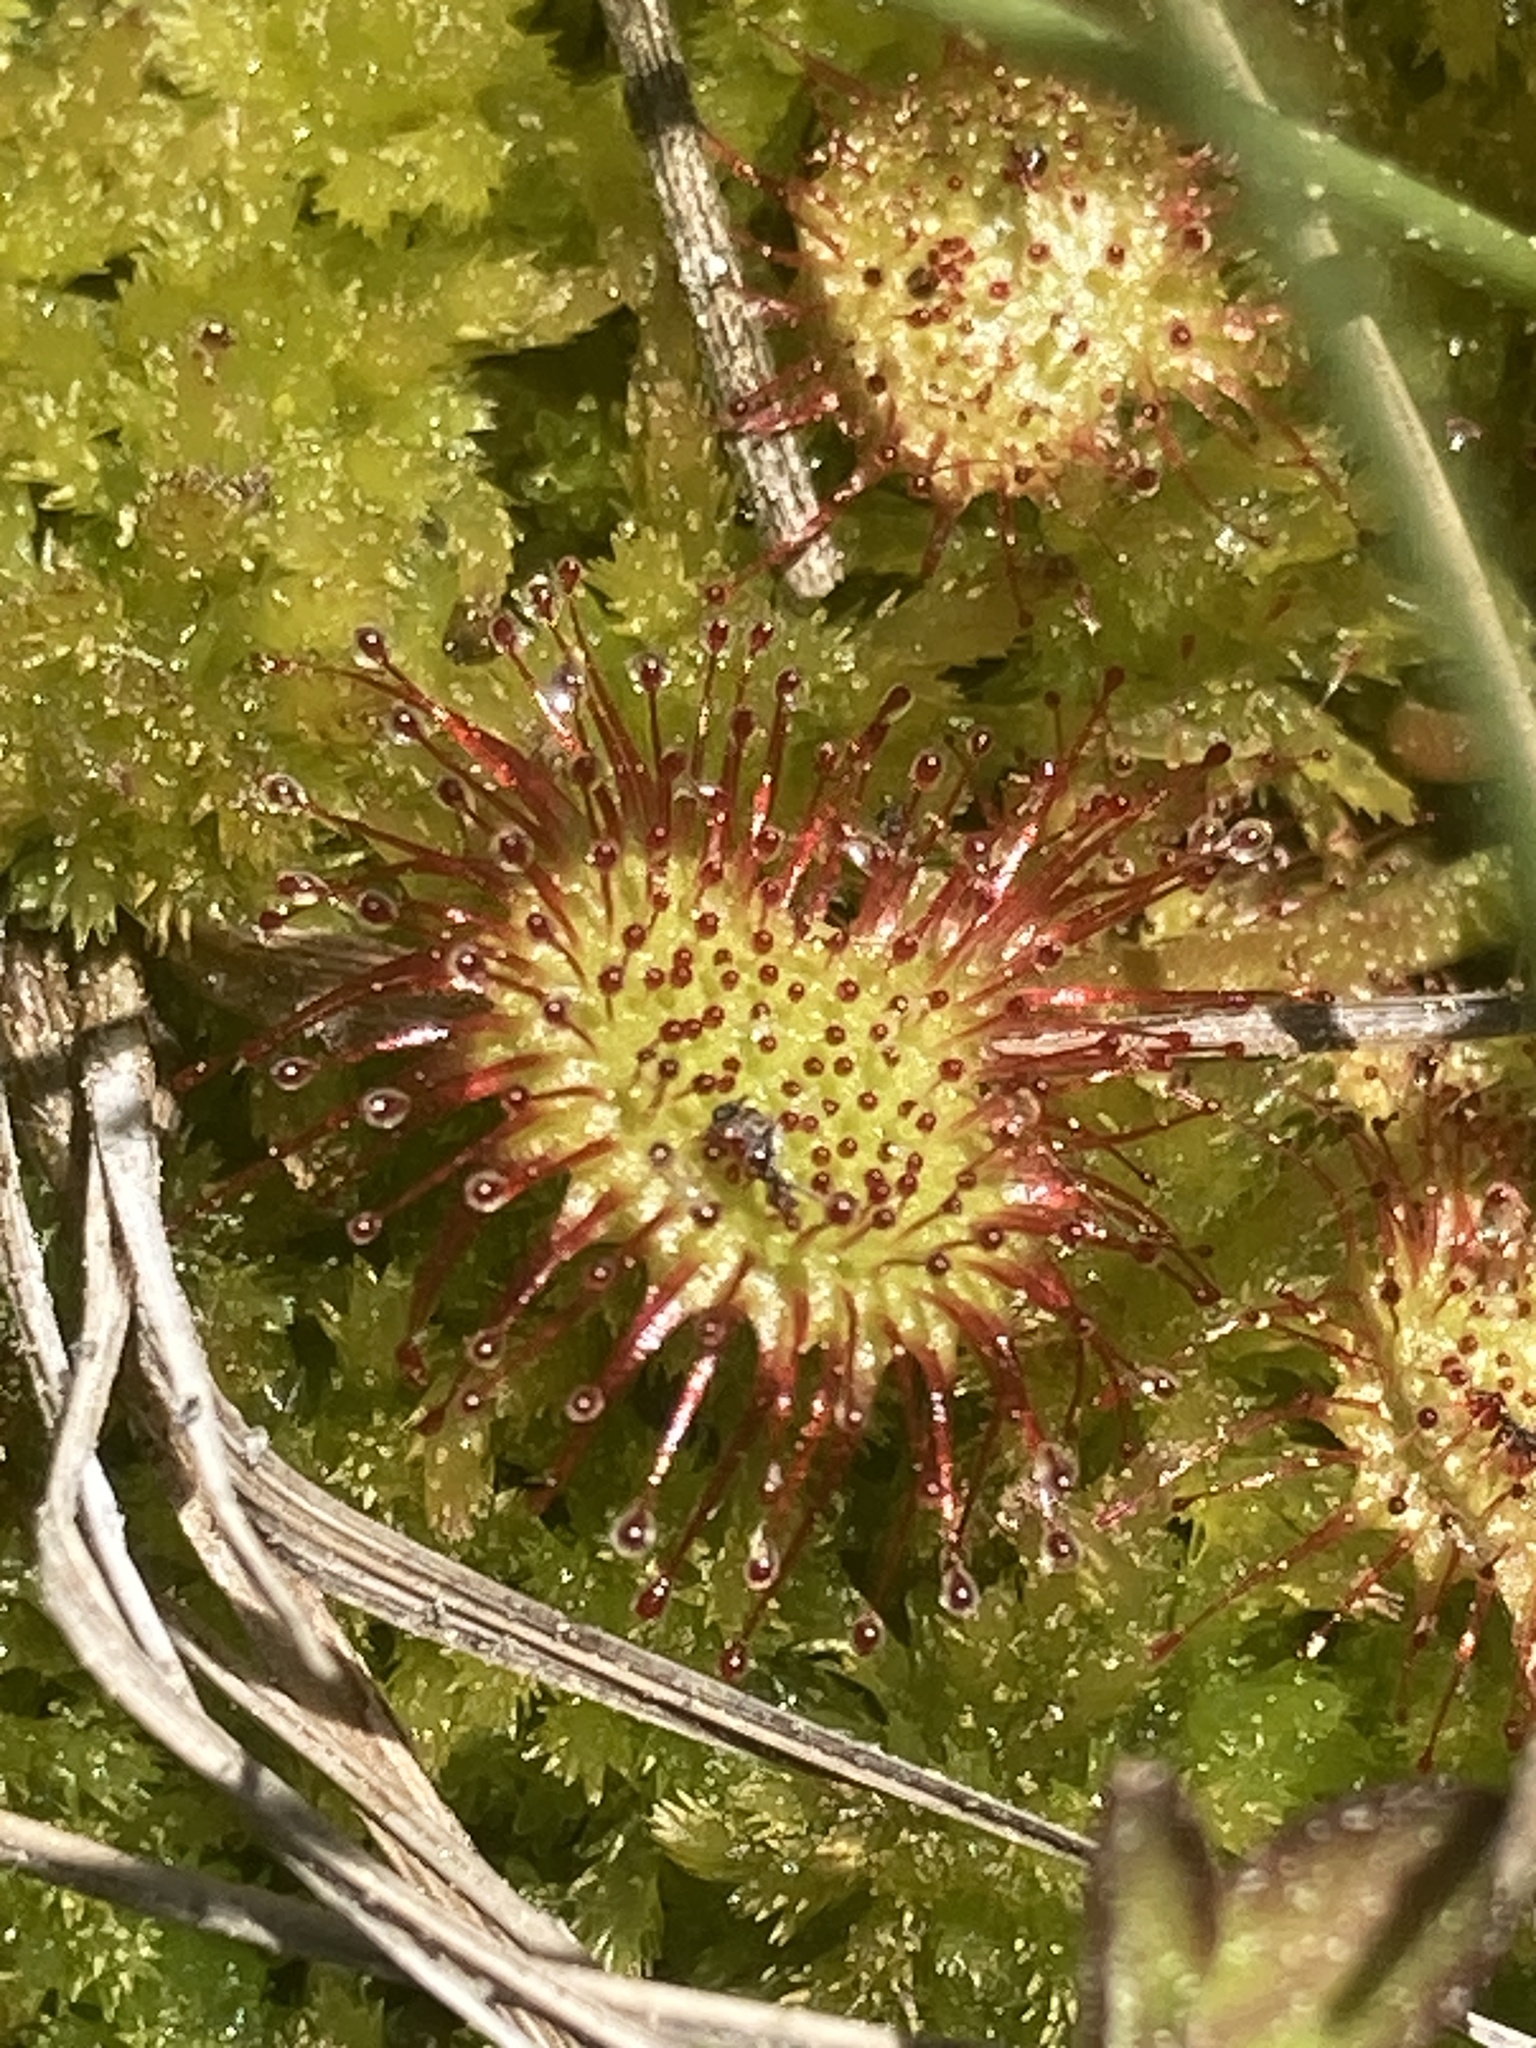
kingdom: Plantae
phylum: Tracheophyta
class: Magnoliopsida
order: Caryophyllales
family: Droseraceae
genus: Drosera
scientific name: Drosera rotundifolia
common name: Round-leaved sundew
